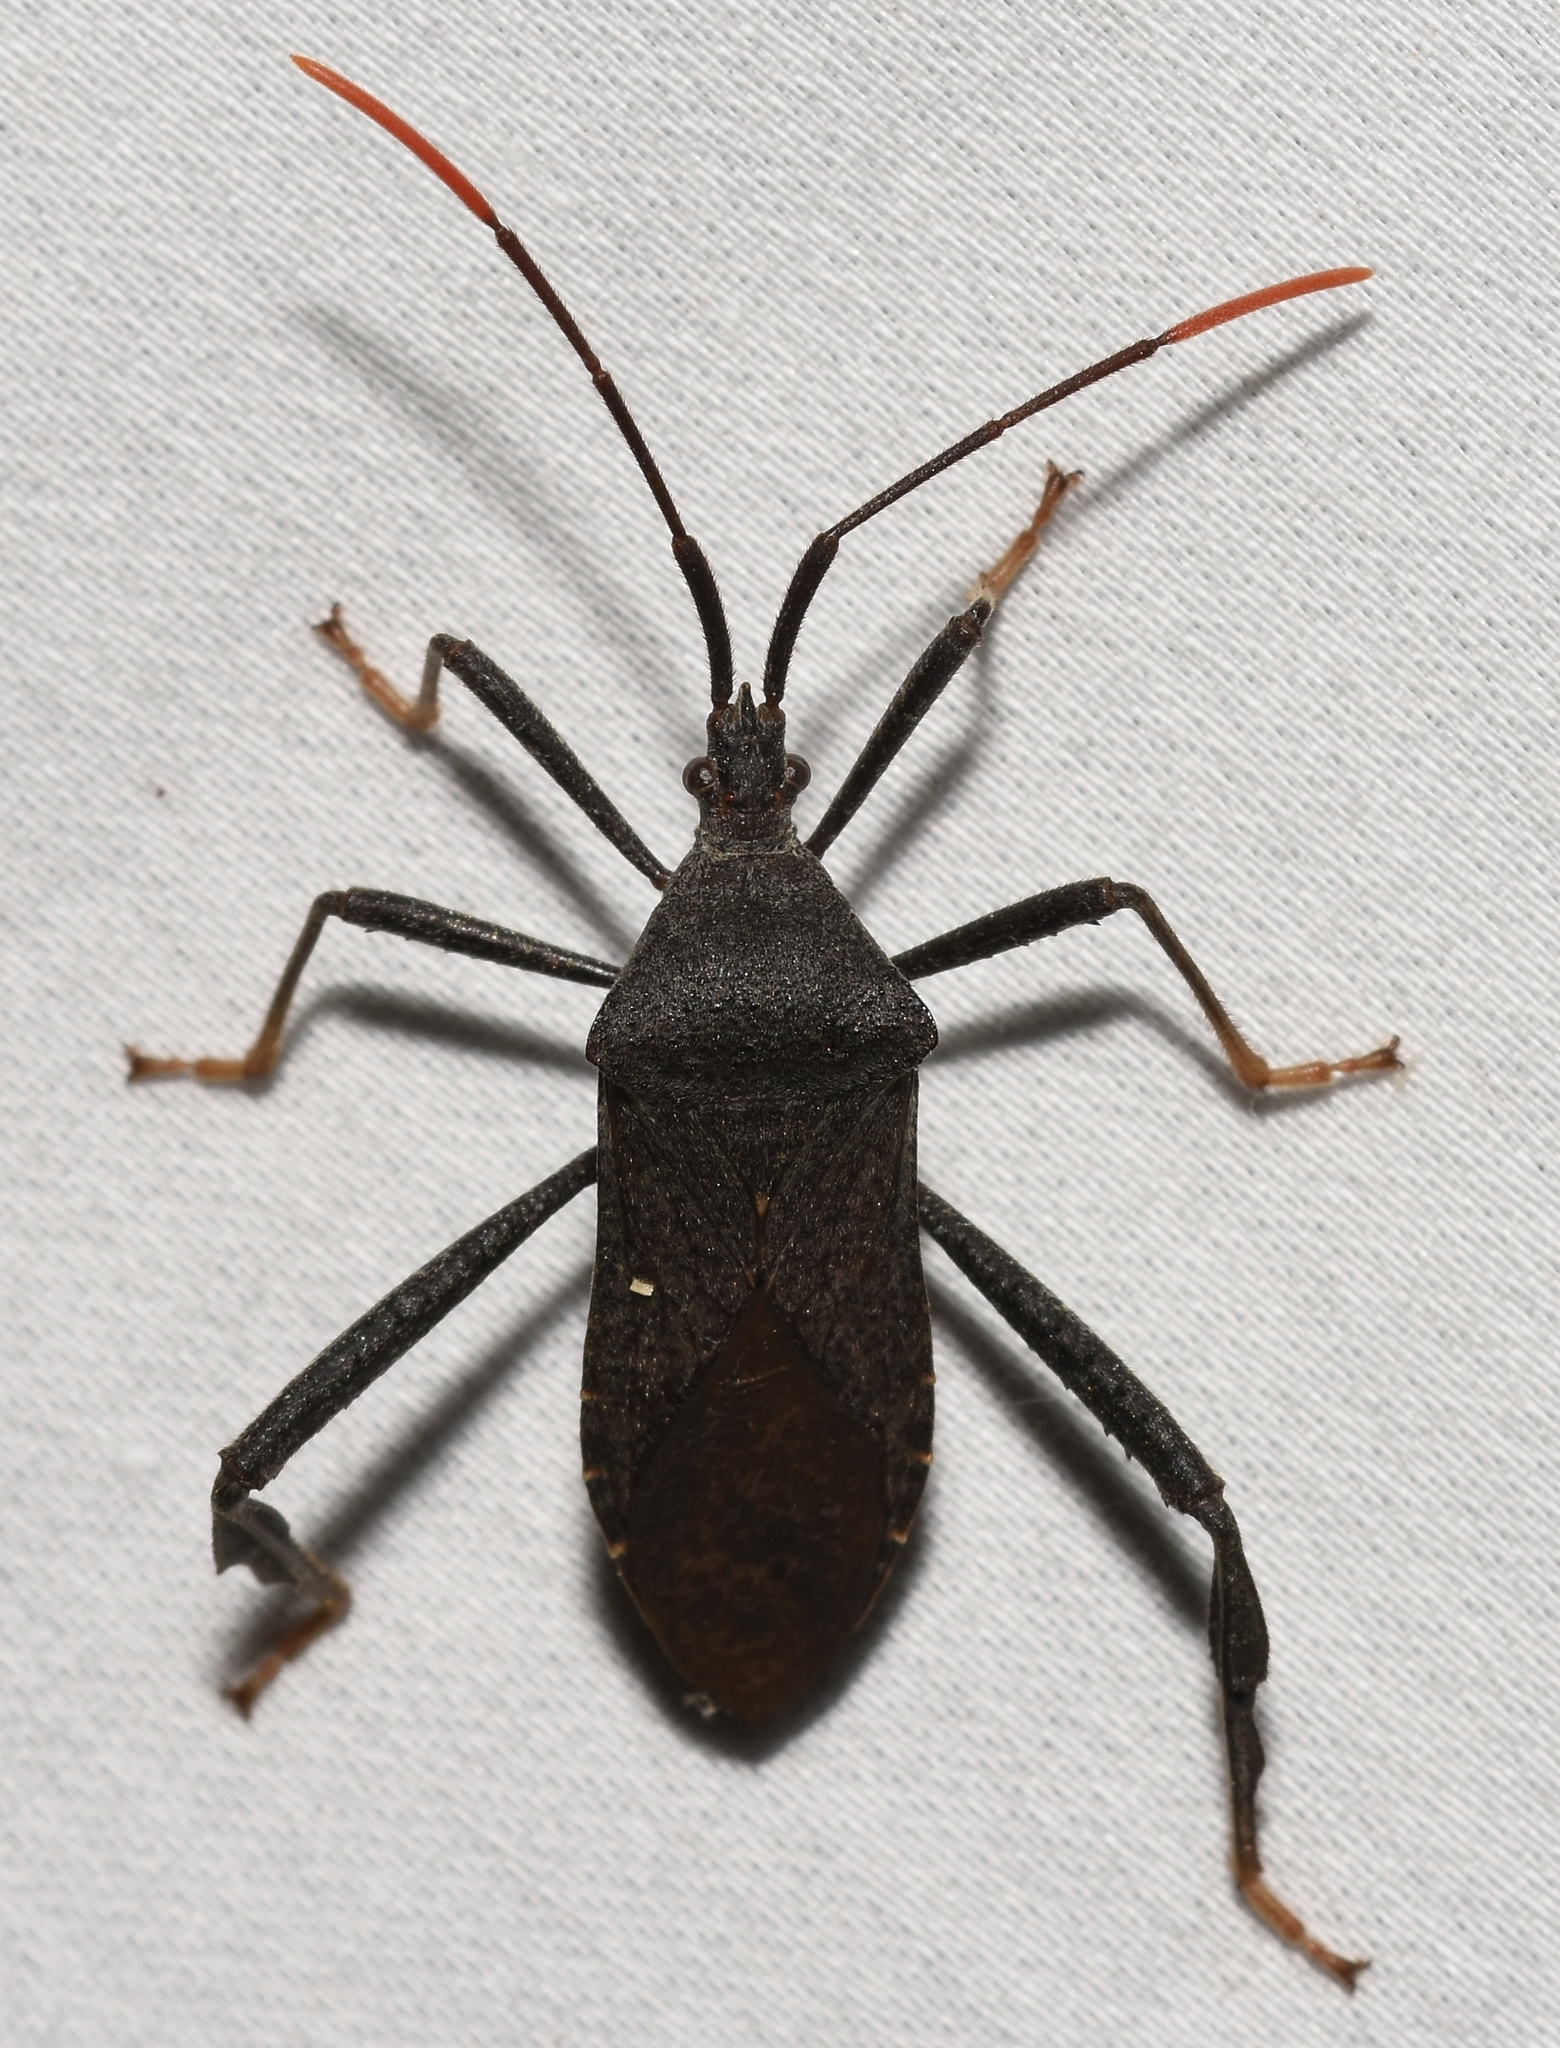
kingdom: Animalia
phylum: Arthropoda
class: Insecta
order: Hemiptera
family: Coreidae
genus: Acanthocephala
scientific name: Acanthocephala terminalis
